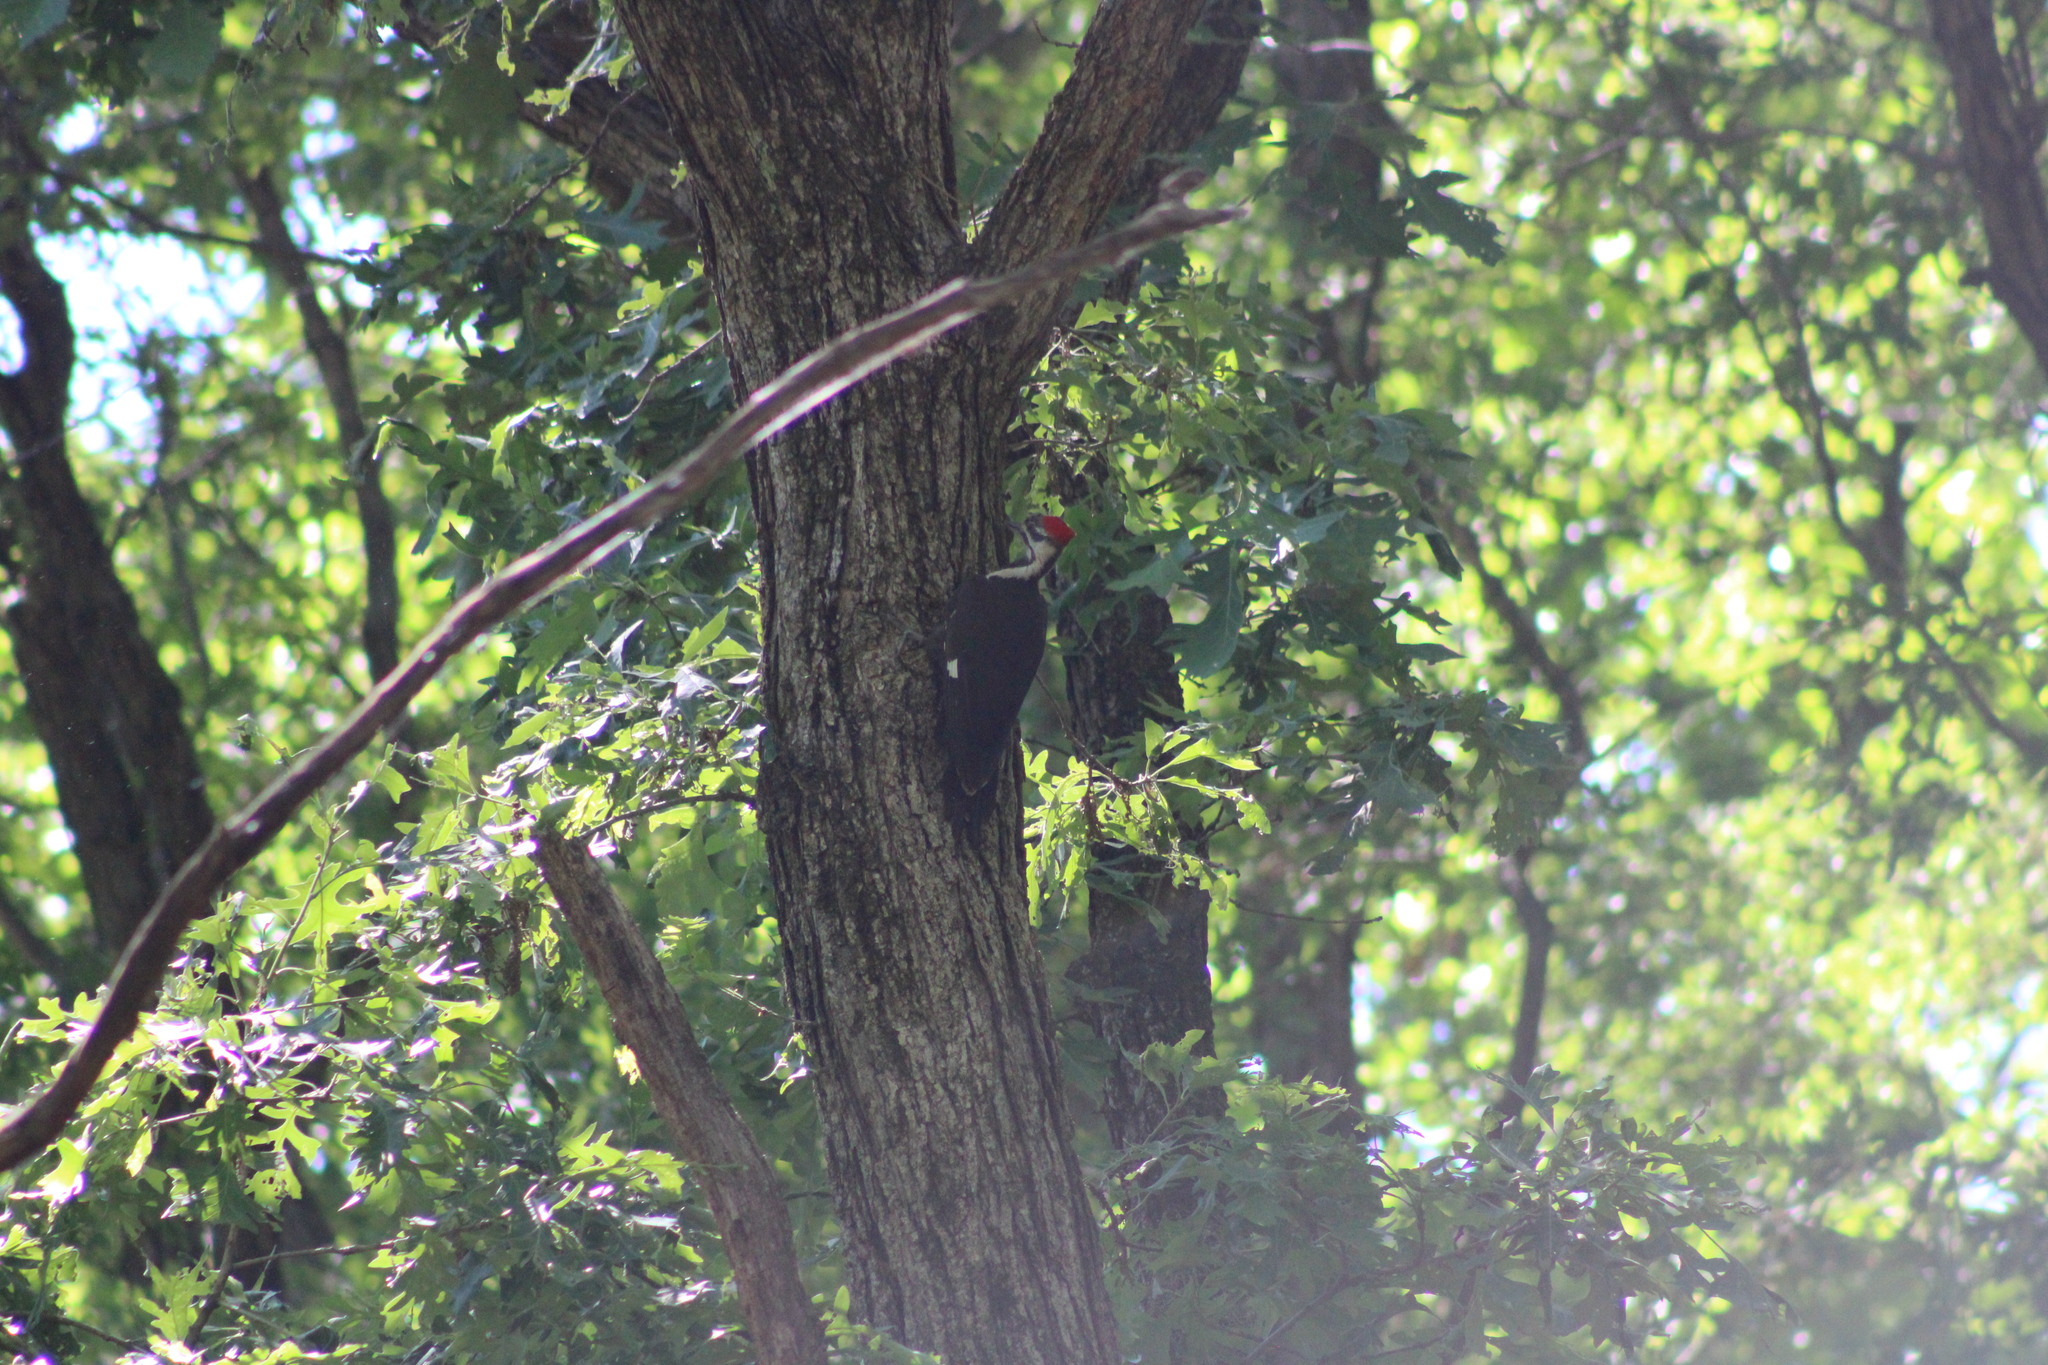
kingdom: Animalia
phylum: Chordata
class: Aves
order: Piciformes
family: Picidae
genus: Dryocopus
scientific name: Dryocopus pileatus
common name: Pileated woodpecker
